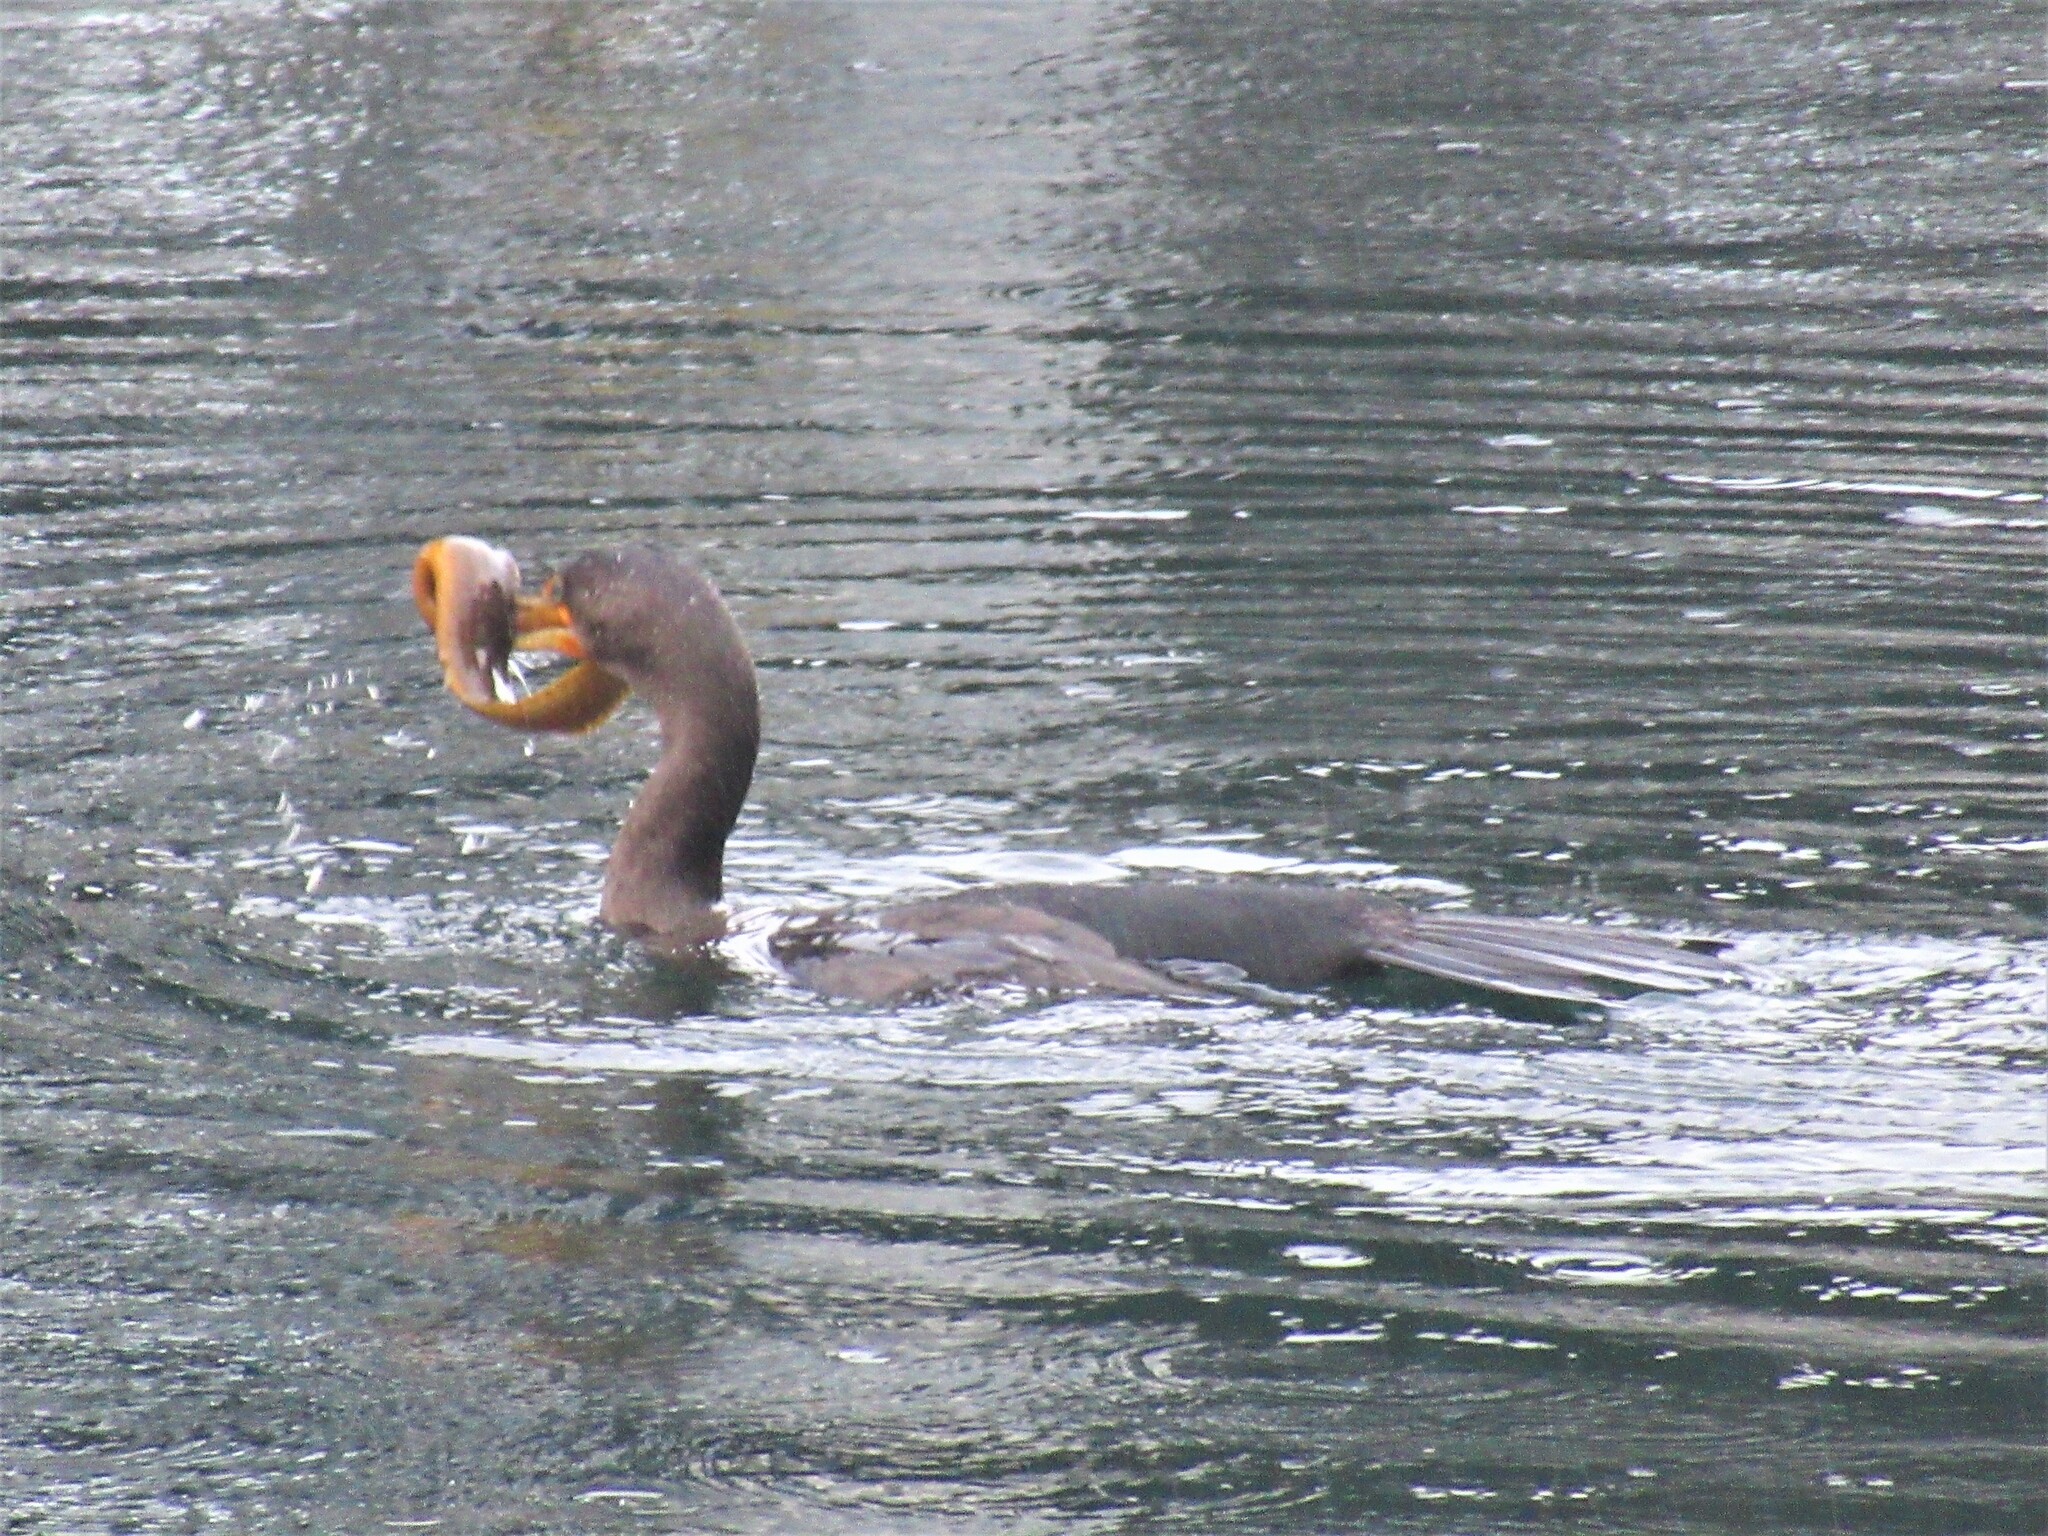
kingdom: Animalia
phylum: Chordata
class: Aves
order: Suliformes
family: Phalacrocoracidae
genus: Phalacrocorax
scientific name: Phalacrocorax auritus
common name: Double-crested cormorant
